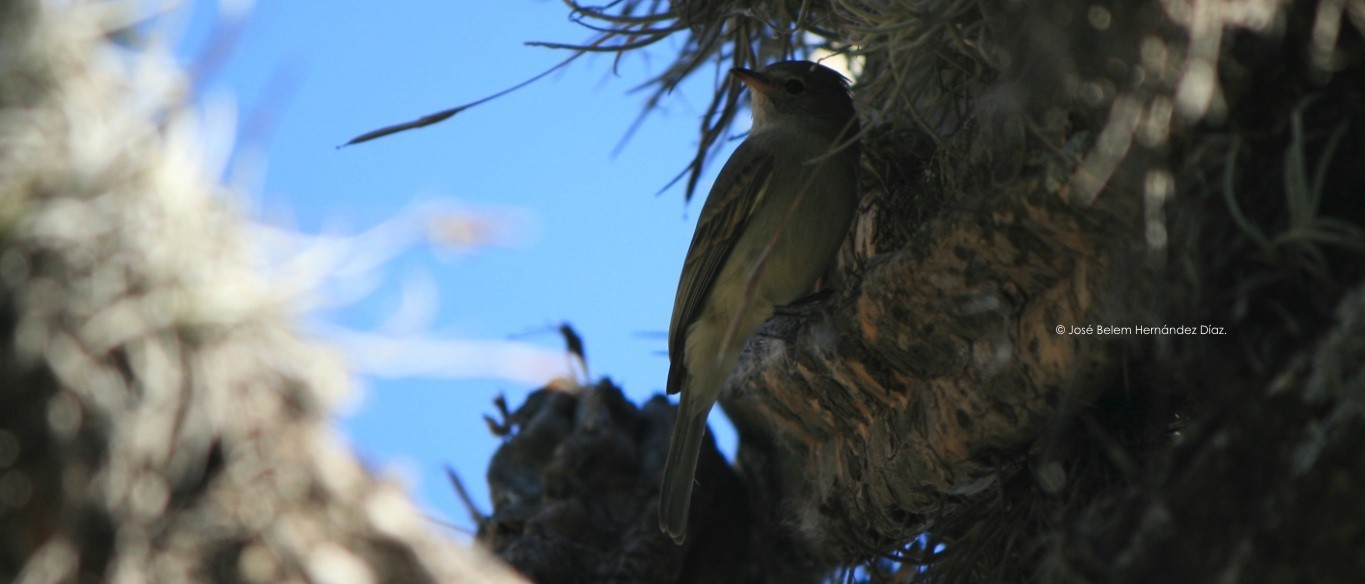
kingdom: Animalia
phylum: Chordata
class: Aves
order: Passeriformes
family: Tyrannidae
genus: Camptostoma
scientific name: Camptostoma imberbe
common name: Northern beardless-tyrannulet
